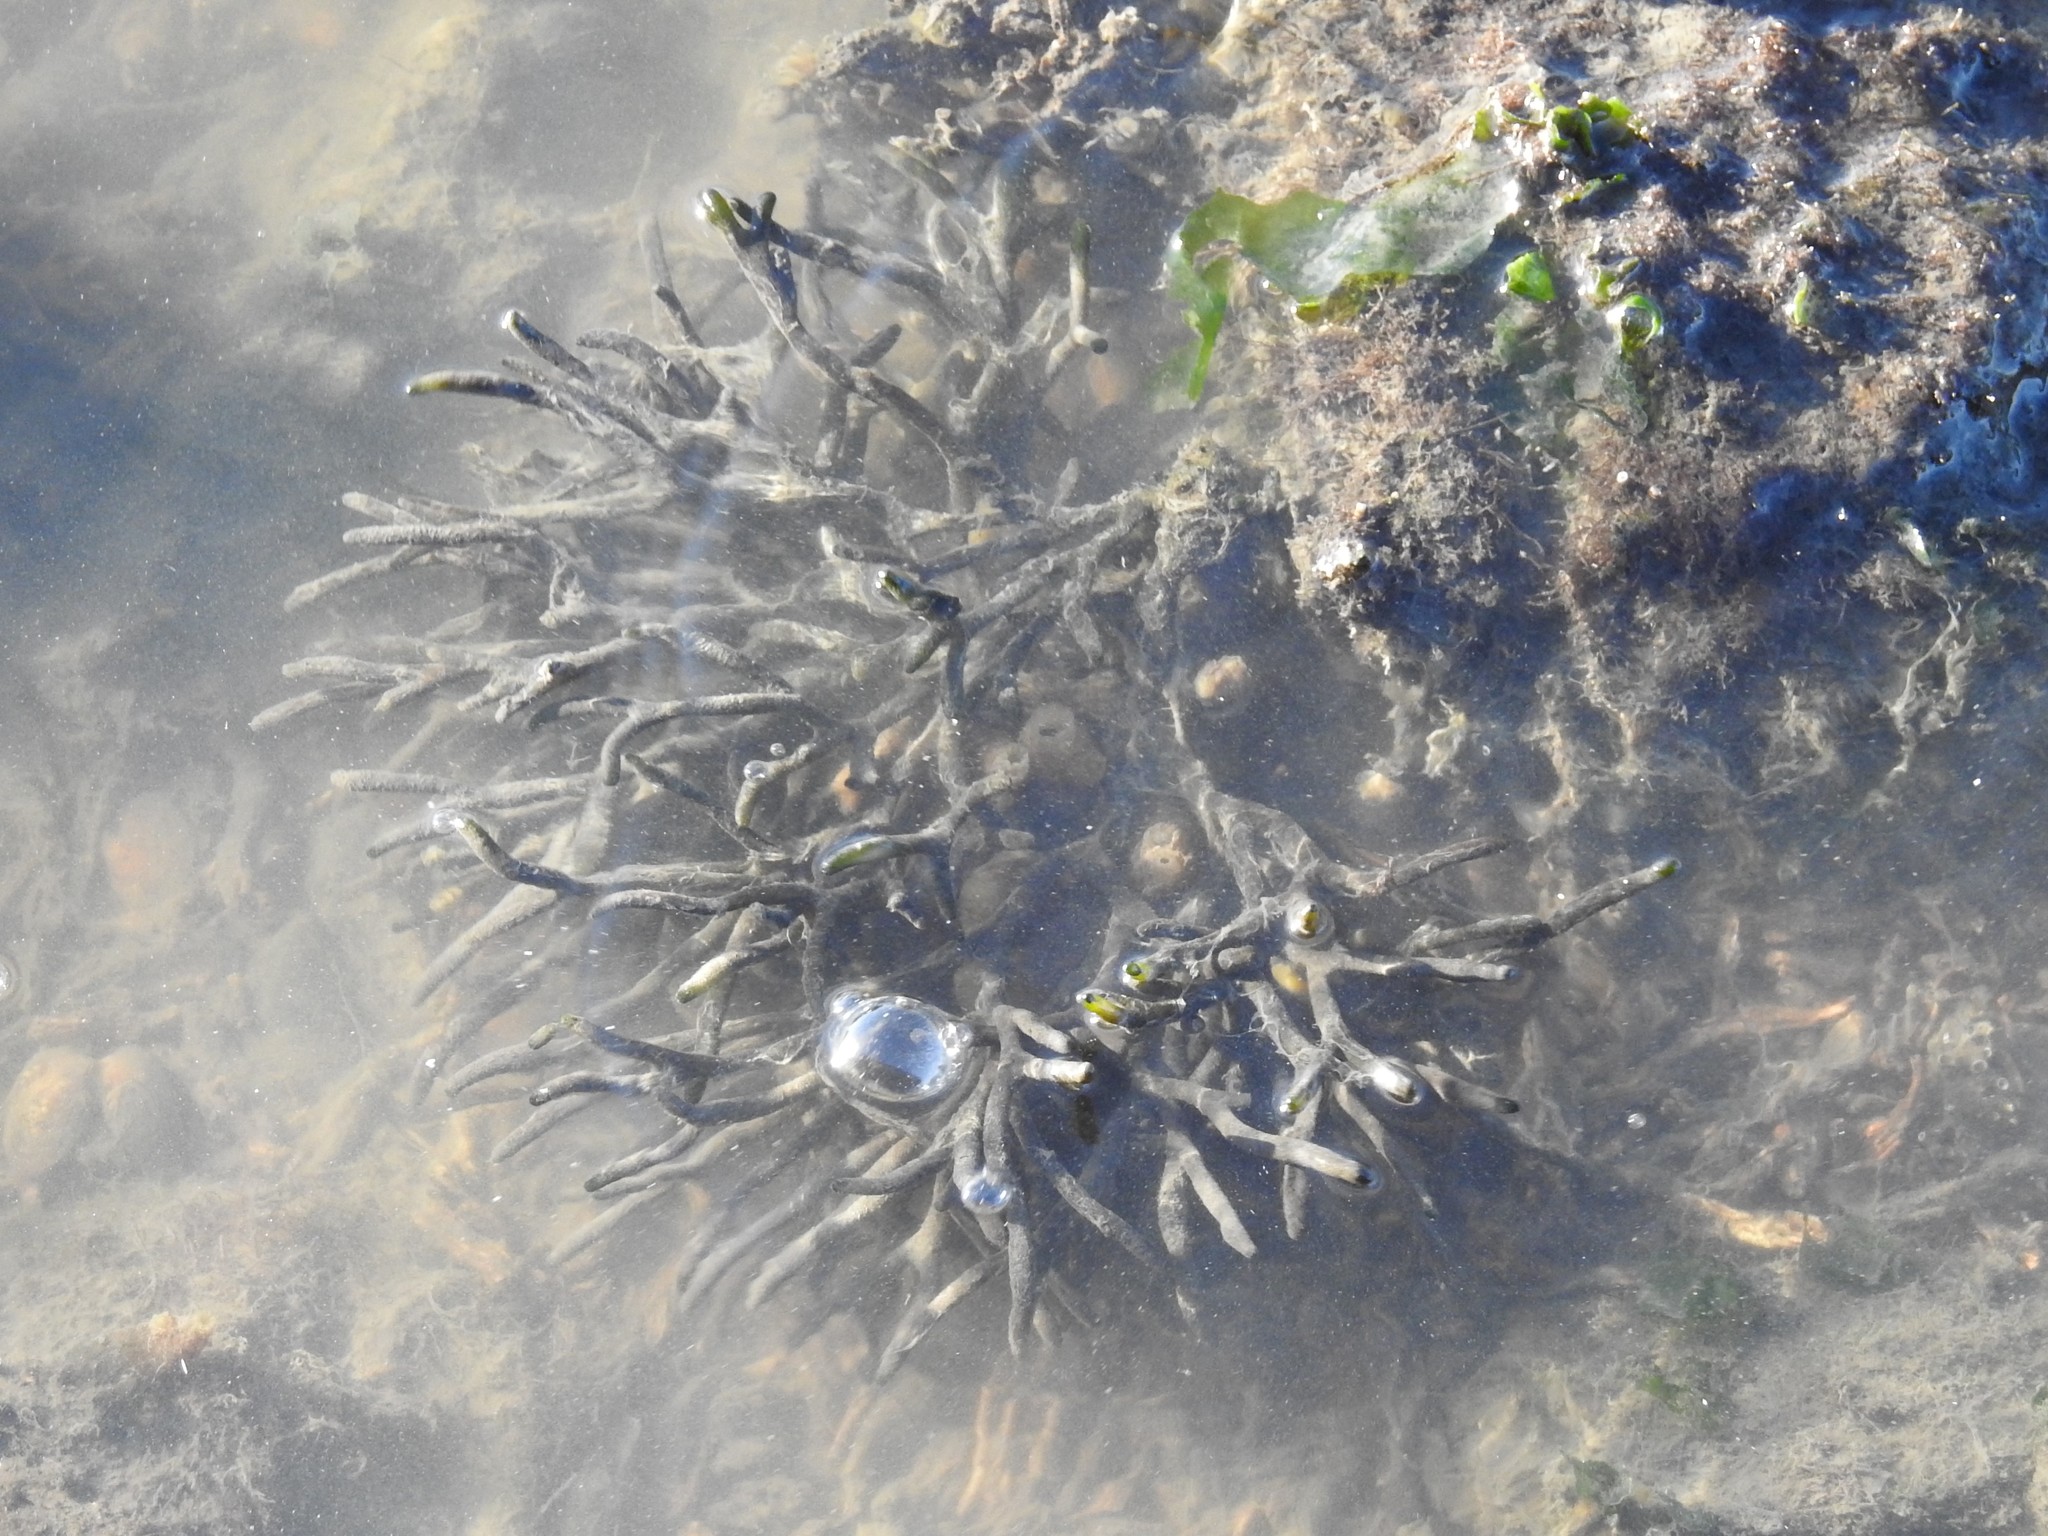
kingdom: Plantae
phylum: Chlorophyta
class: Ulvophyceae
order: Bryopsidales
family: Codiaceae
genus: Codium
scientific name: Codium fragile
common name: Dead man's fingers
